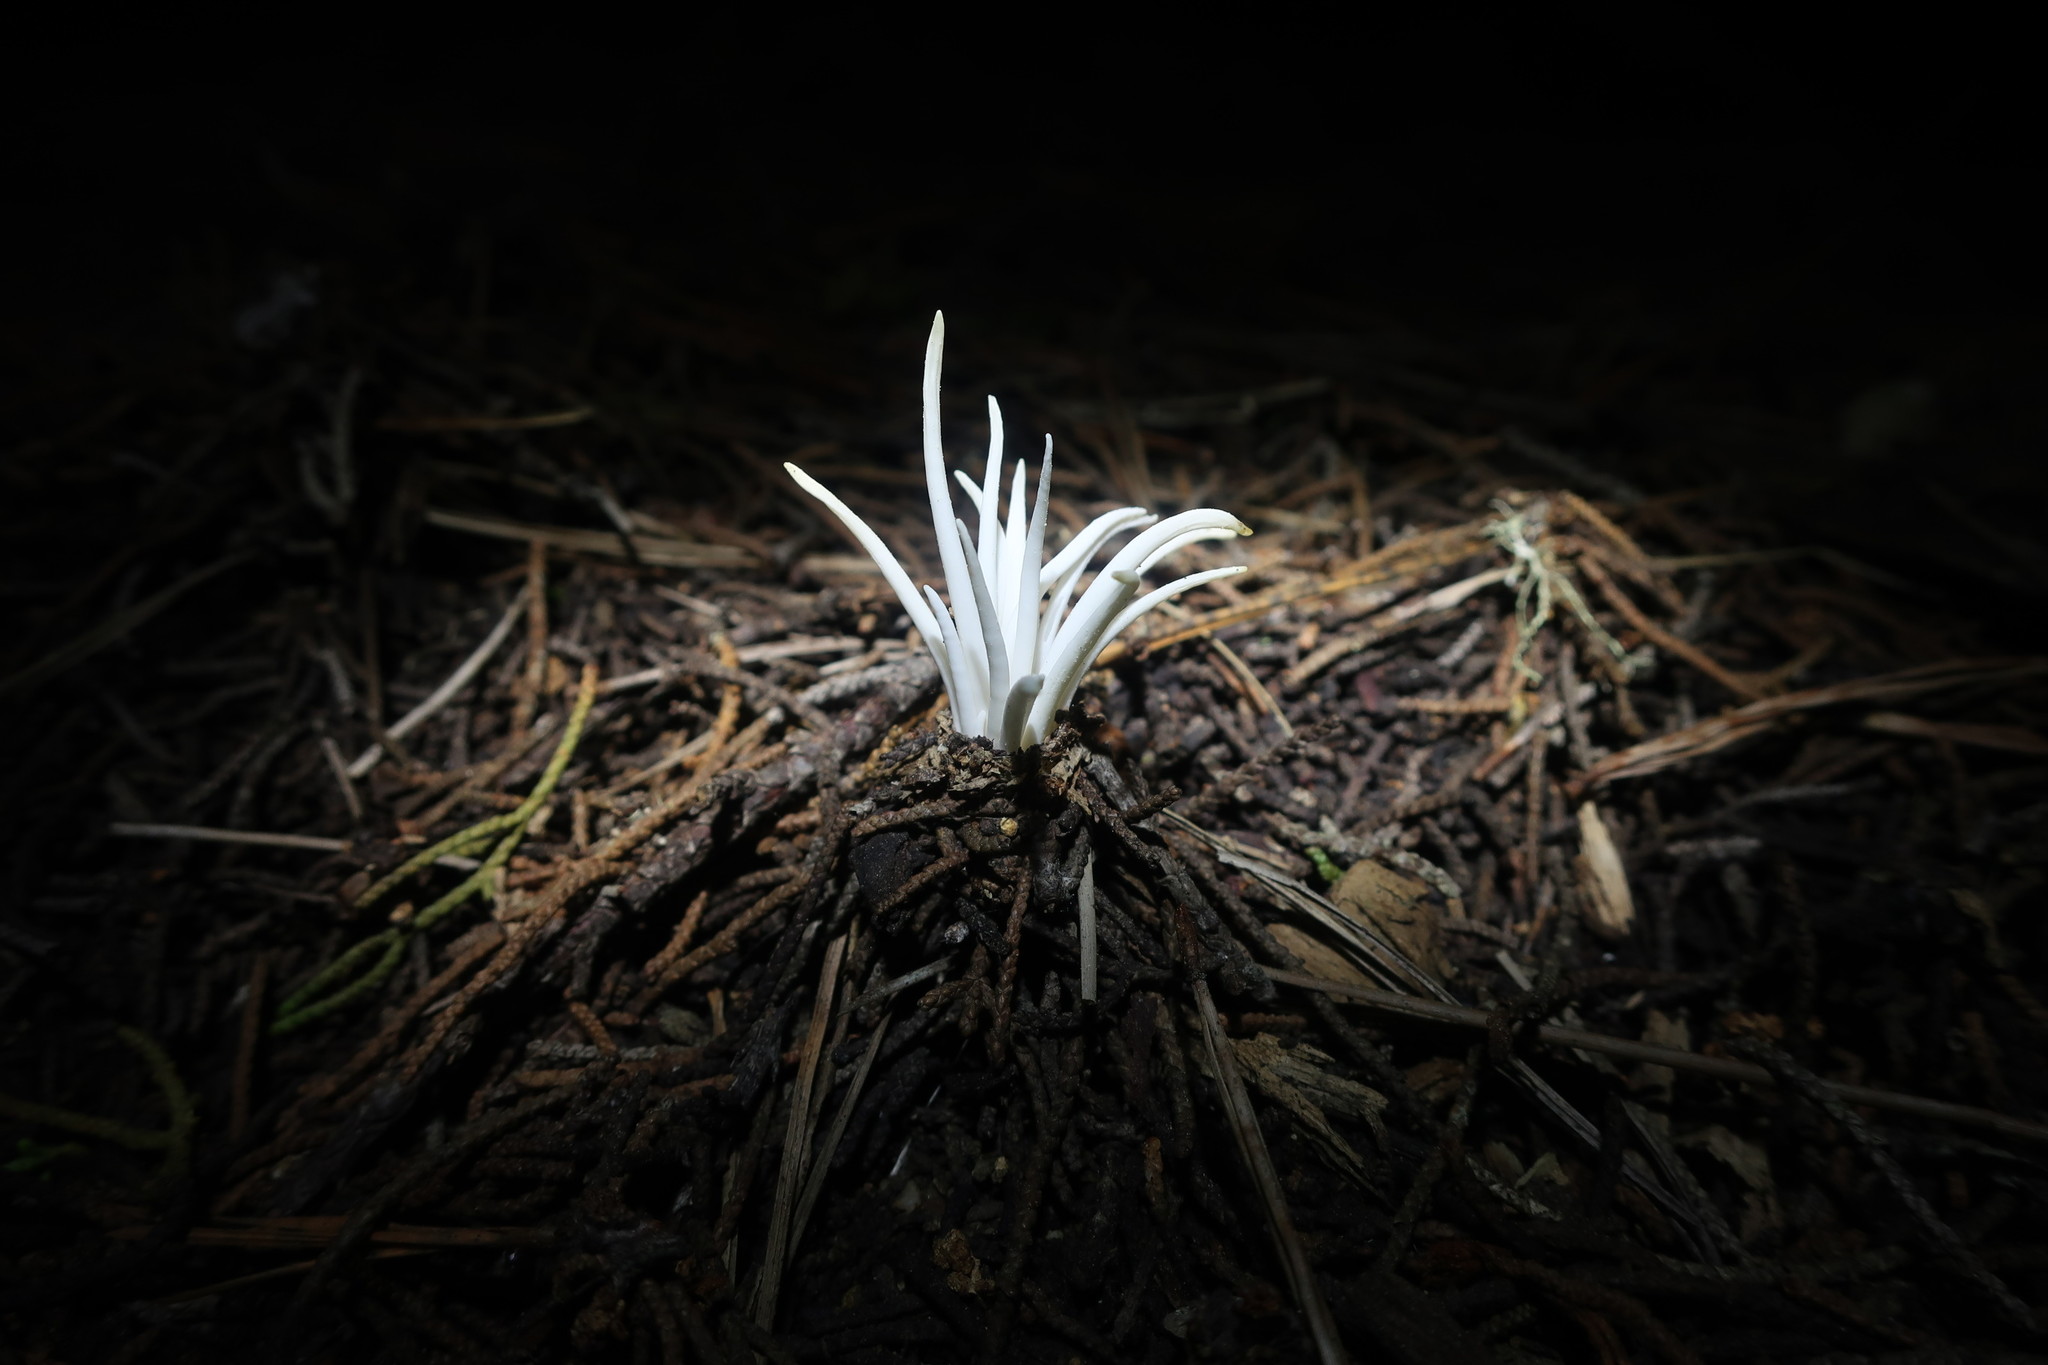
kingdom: Fungi
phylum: Basidiomycota
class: Agaricomycetes
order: Agaricales
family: Clavariaceae
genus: Clavaria
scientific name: Clavaria fragilis
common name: White spindles
